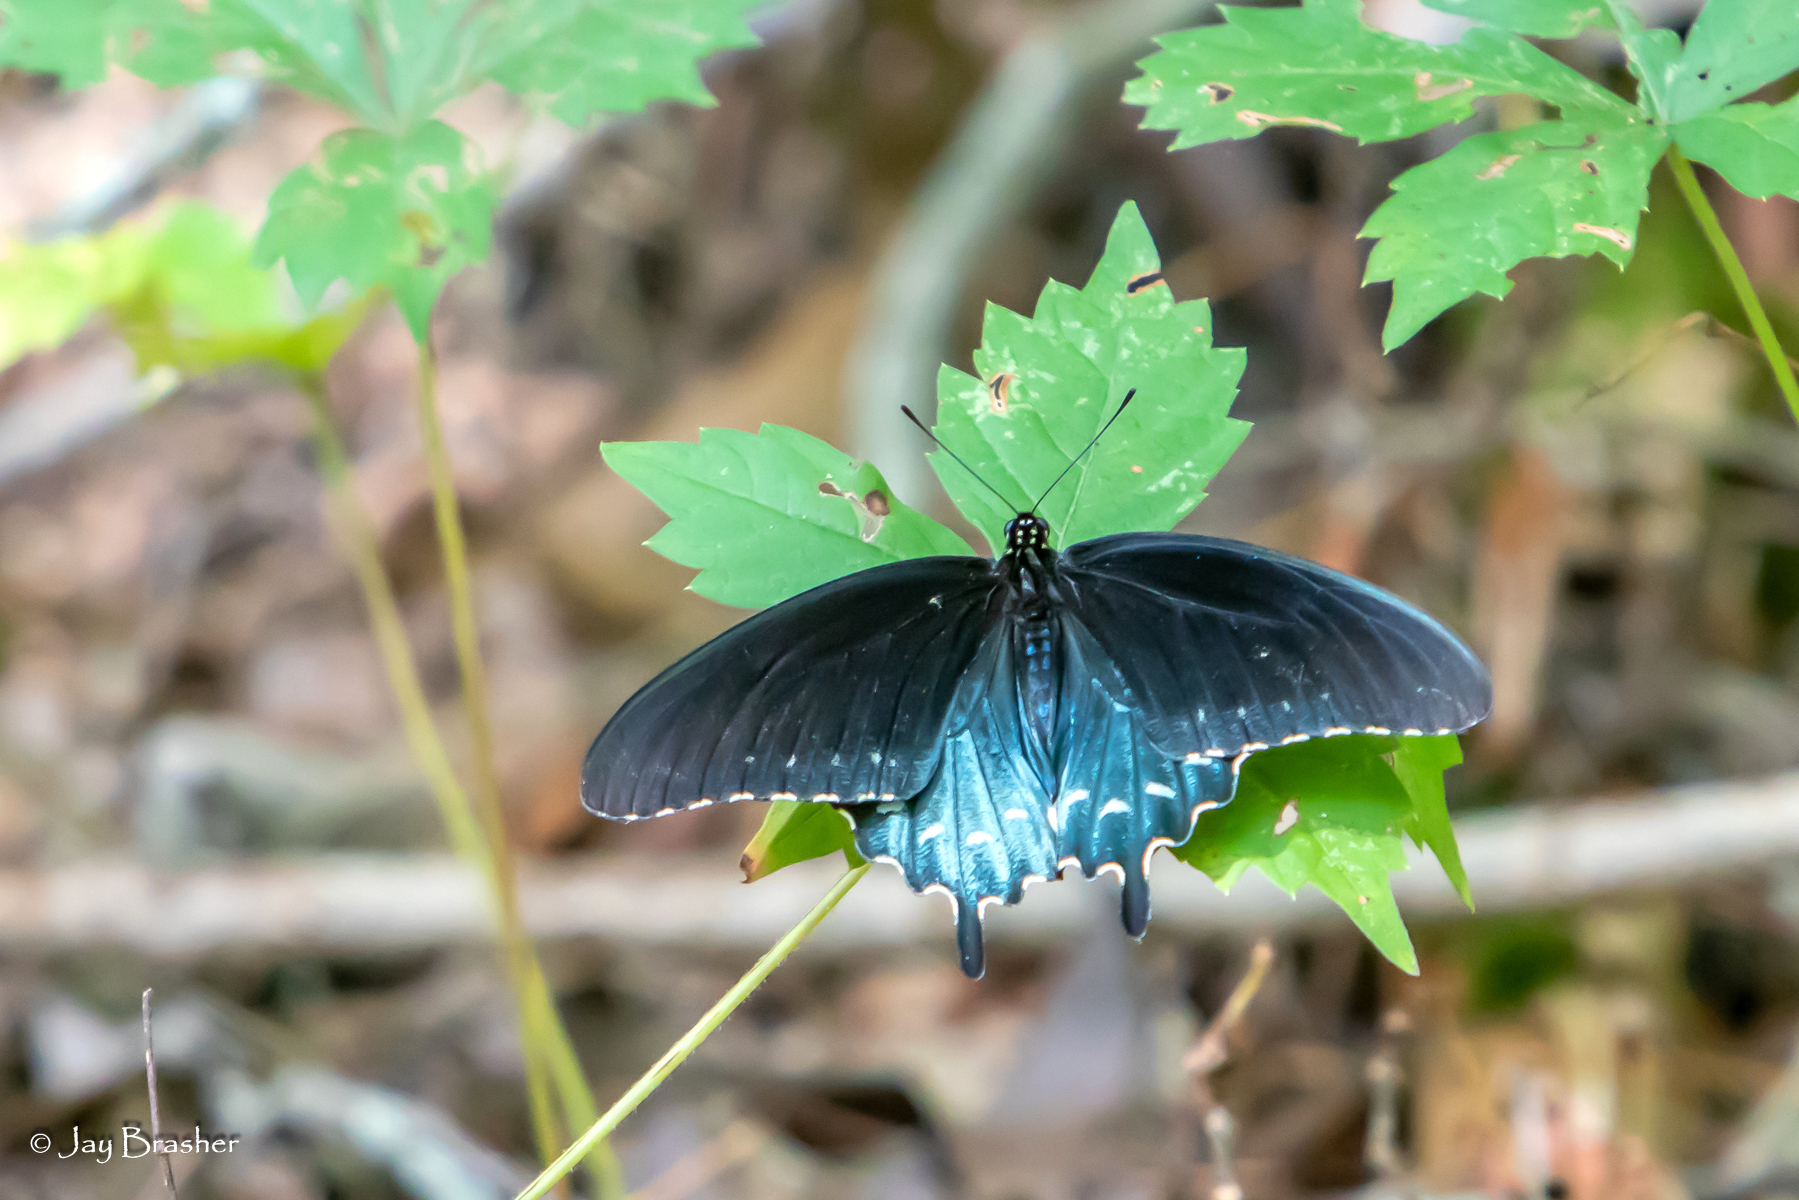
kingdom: Animalia
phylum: Arthropoda
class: Insecta
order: Lepidoptera
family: Papilionidae
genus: Battus
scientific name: Battus philenor
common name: Pipevine swallowtail
